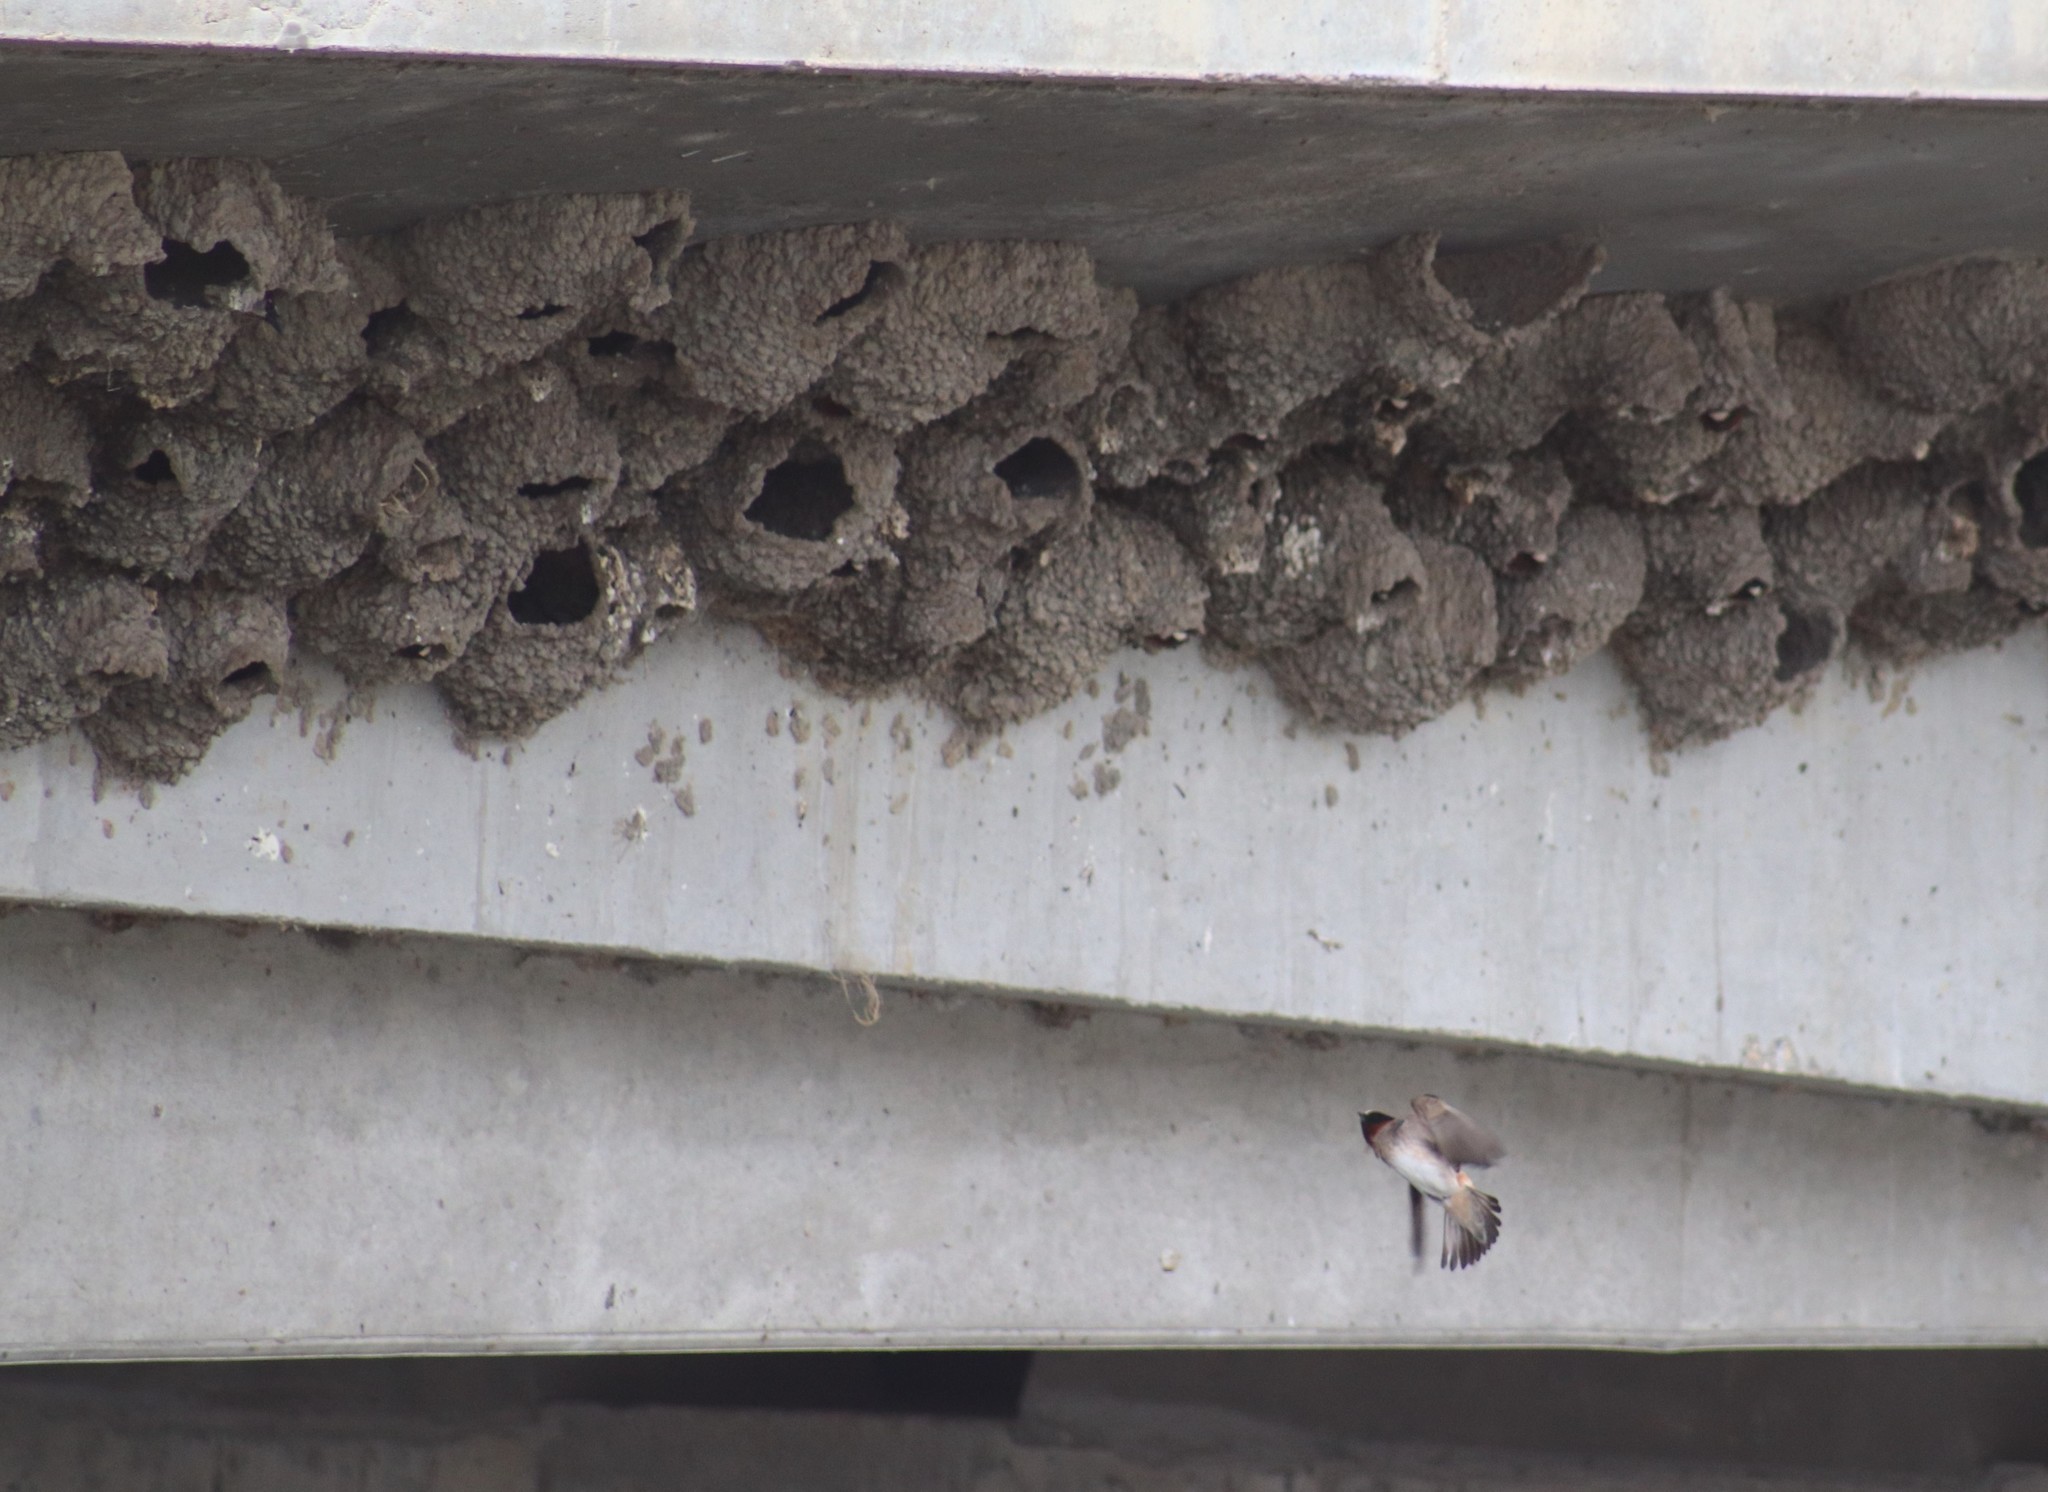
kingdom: Animalia
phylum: Chordata
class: Aves
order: Passeriformes
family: Hirundinidae
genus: Petrochelidon
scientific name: Petrochelidon pyrrhonota
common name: American cliff swallow
